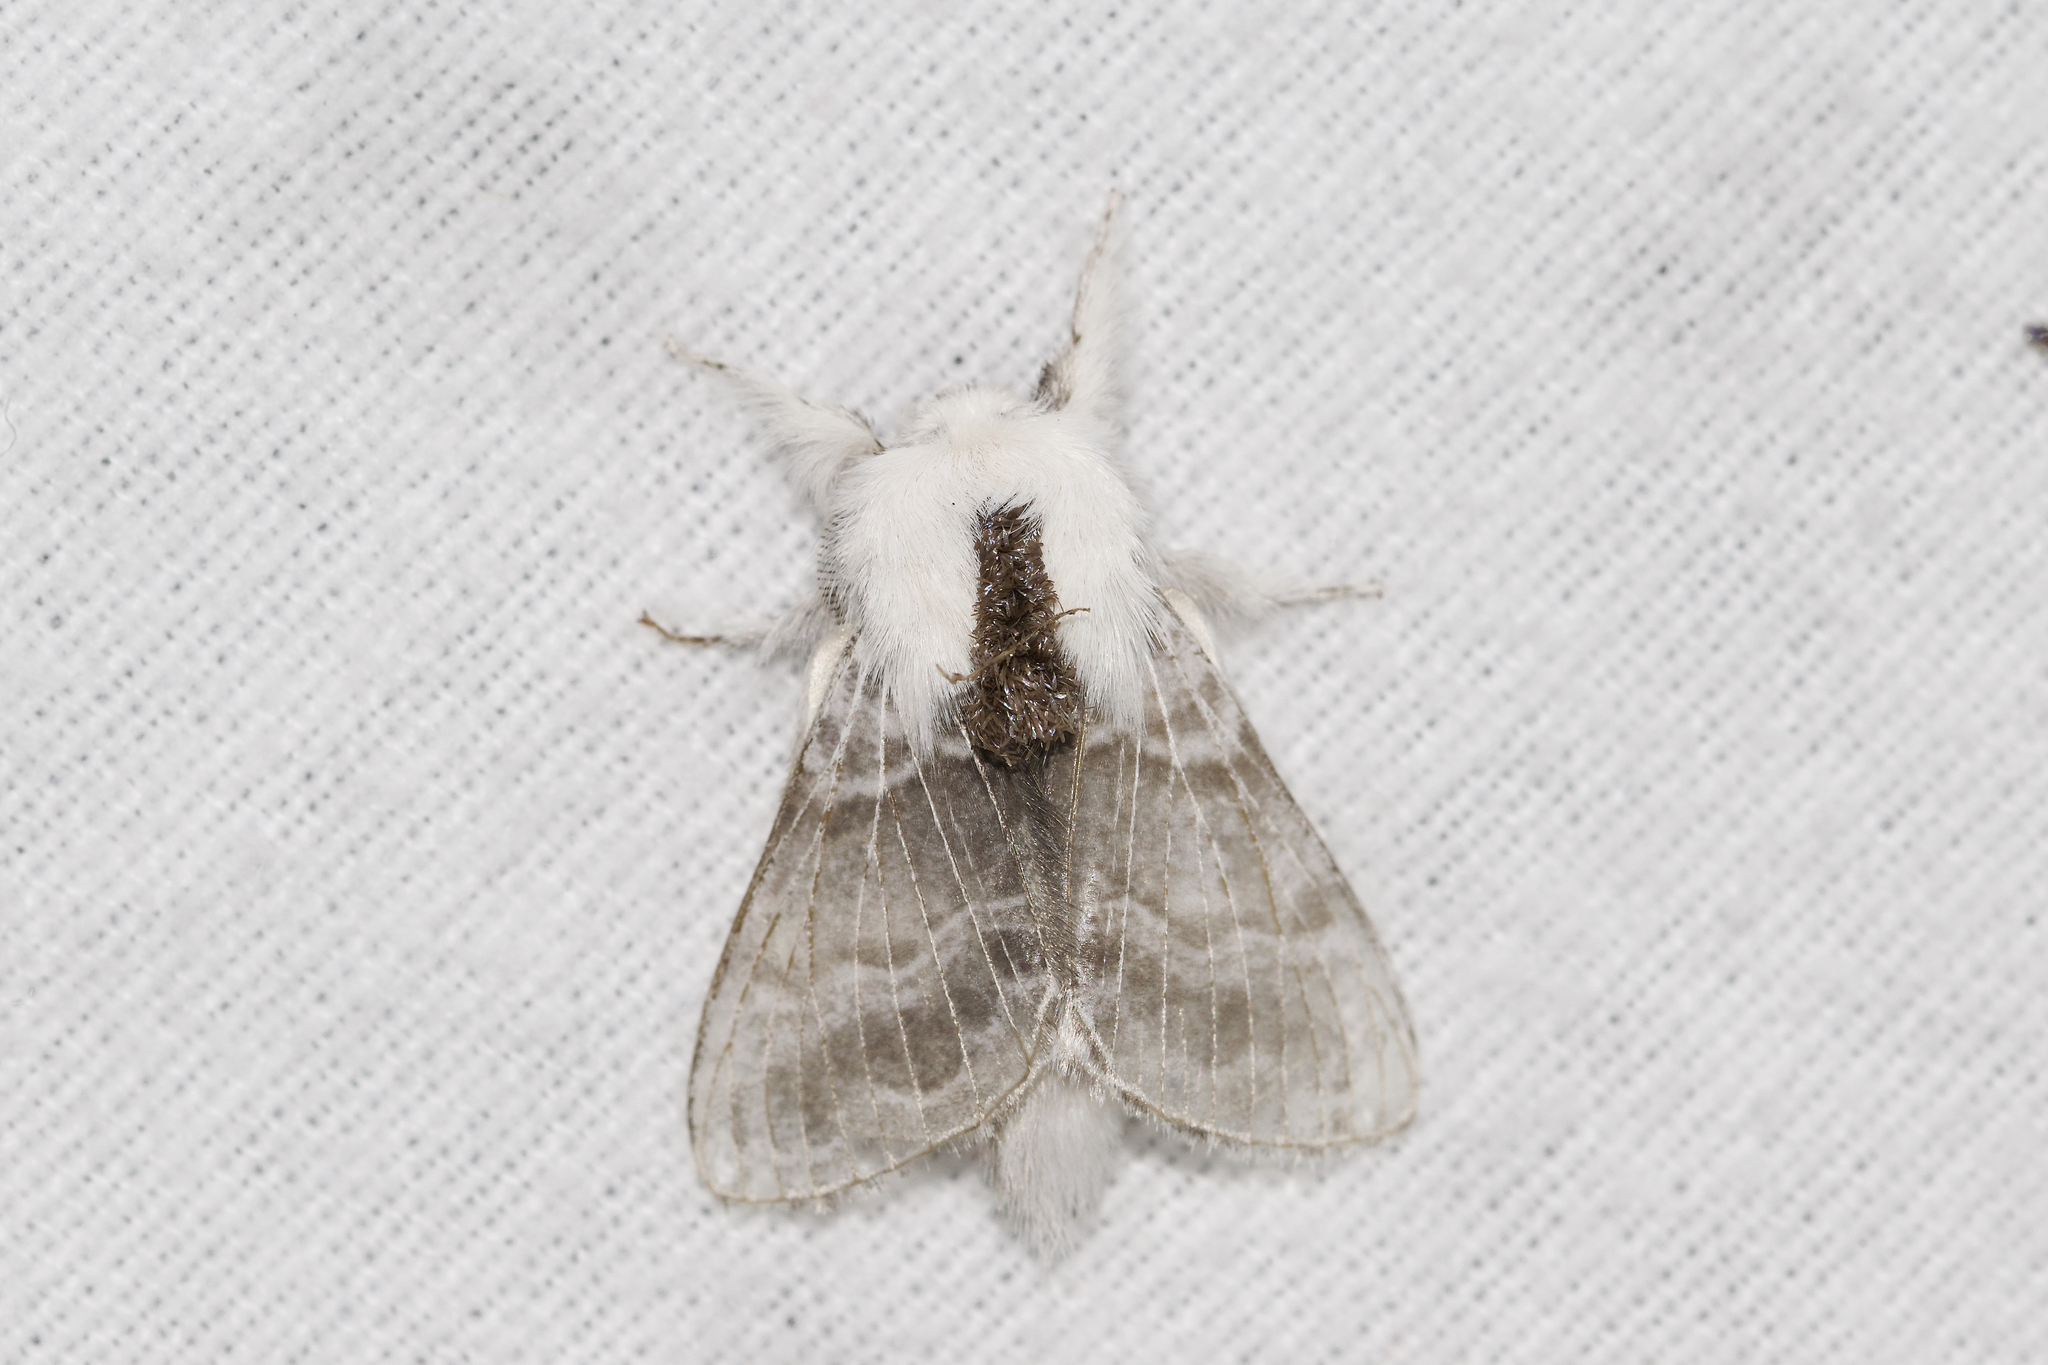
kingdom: Animalia
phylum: Arthropoda
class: Insecta
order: Lepidoptera
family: Lasiocampidae
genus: Tolype
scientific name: Tolype velleda
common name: Large tolype moth
